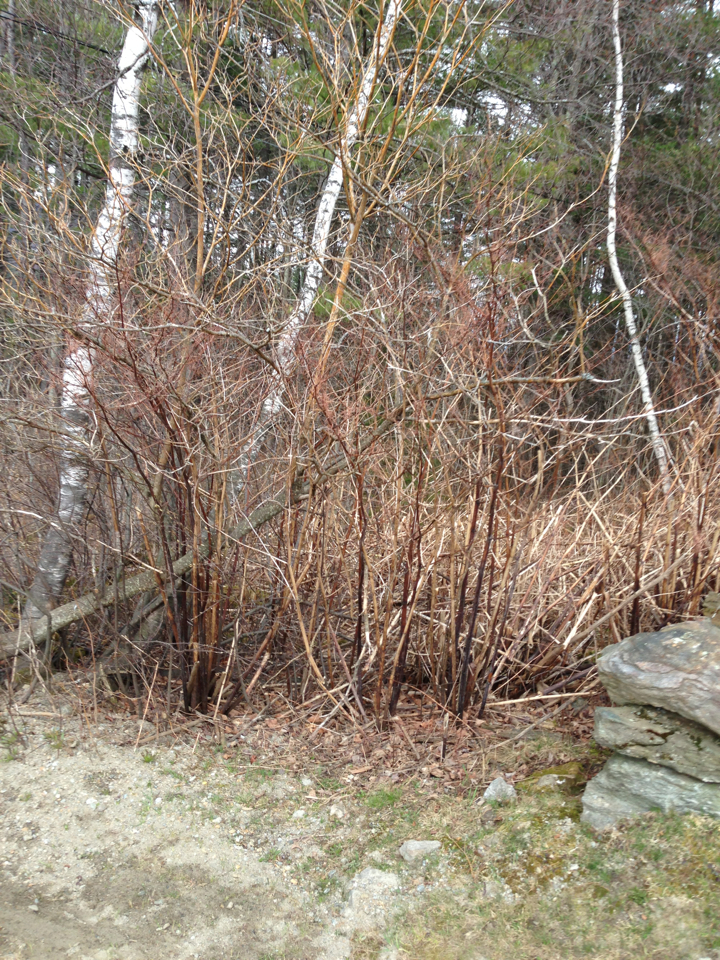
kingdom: Plantae
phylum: Tracheophyta
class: Magnoliopsida
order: Caryophyllales
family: Polygonaceae
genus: Reynoutria
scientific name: Reynoutria japonica
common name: Japanese knotweed
